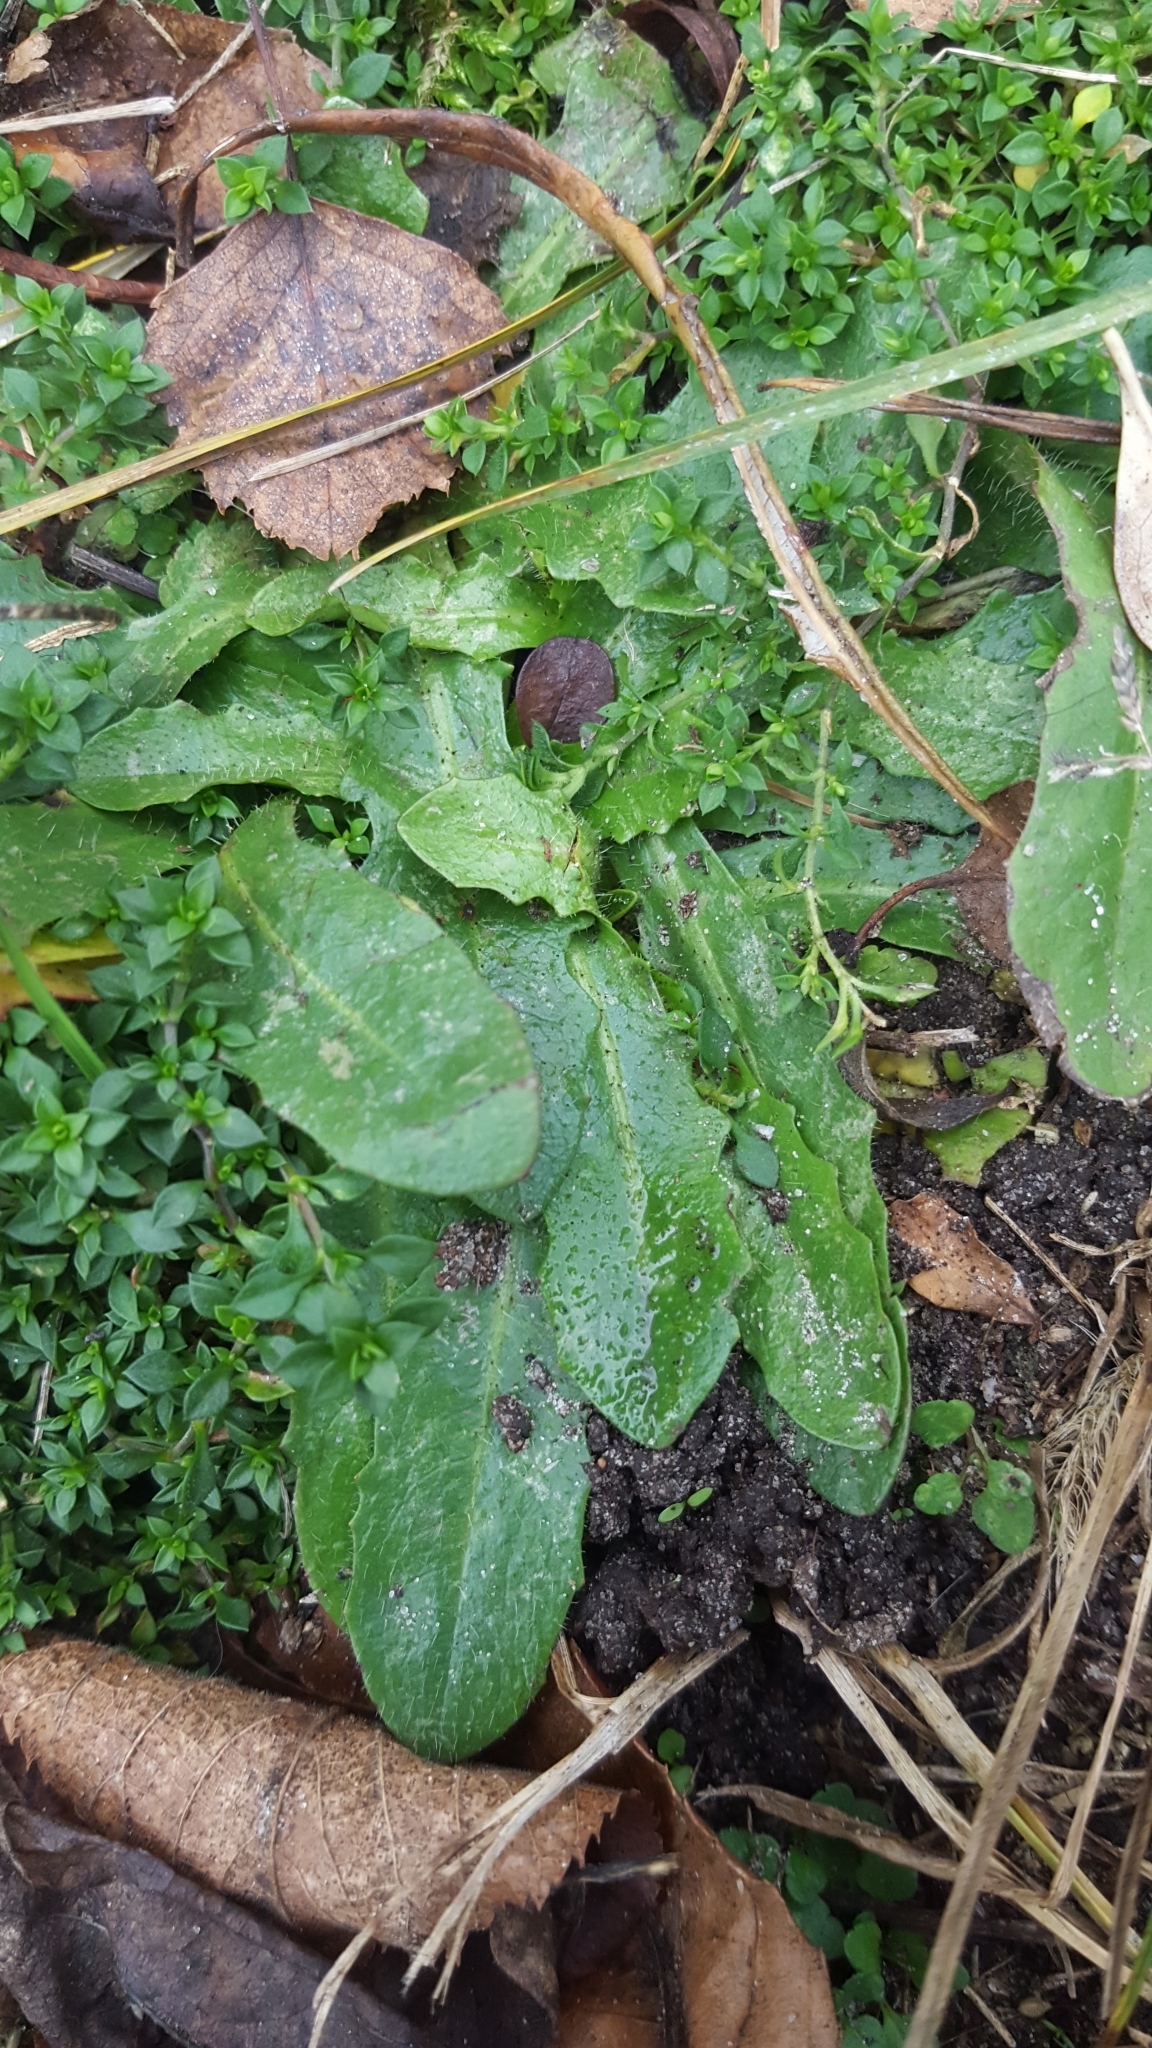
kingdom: Plantae
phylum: Tracheophyta
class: Magnoliopsida
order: Asterales
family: Asteraceae
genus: Hypochaeris
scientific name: Hypochaeris radicata
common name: Flatweed
